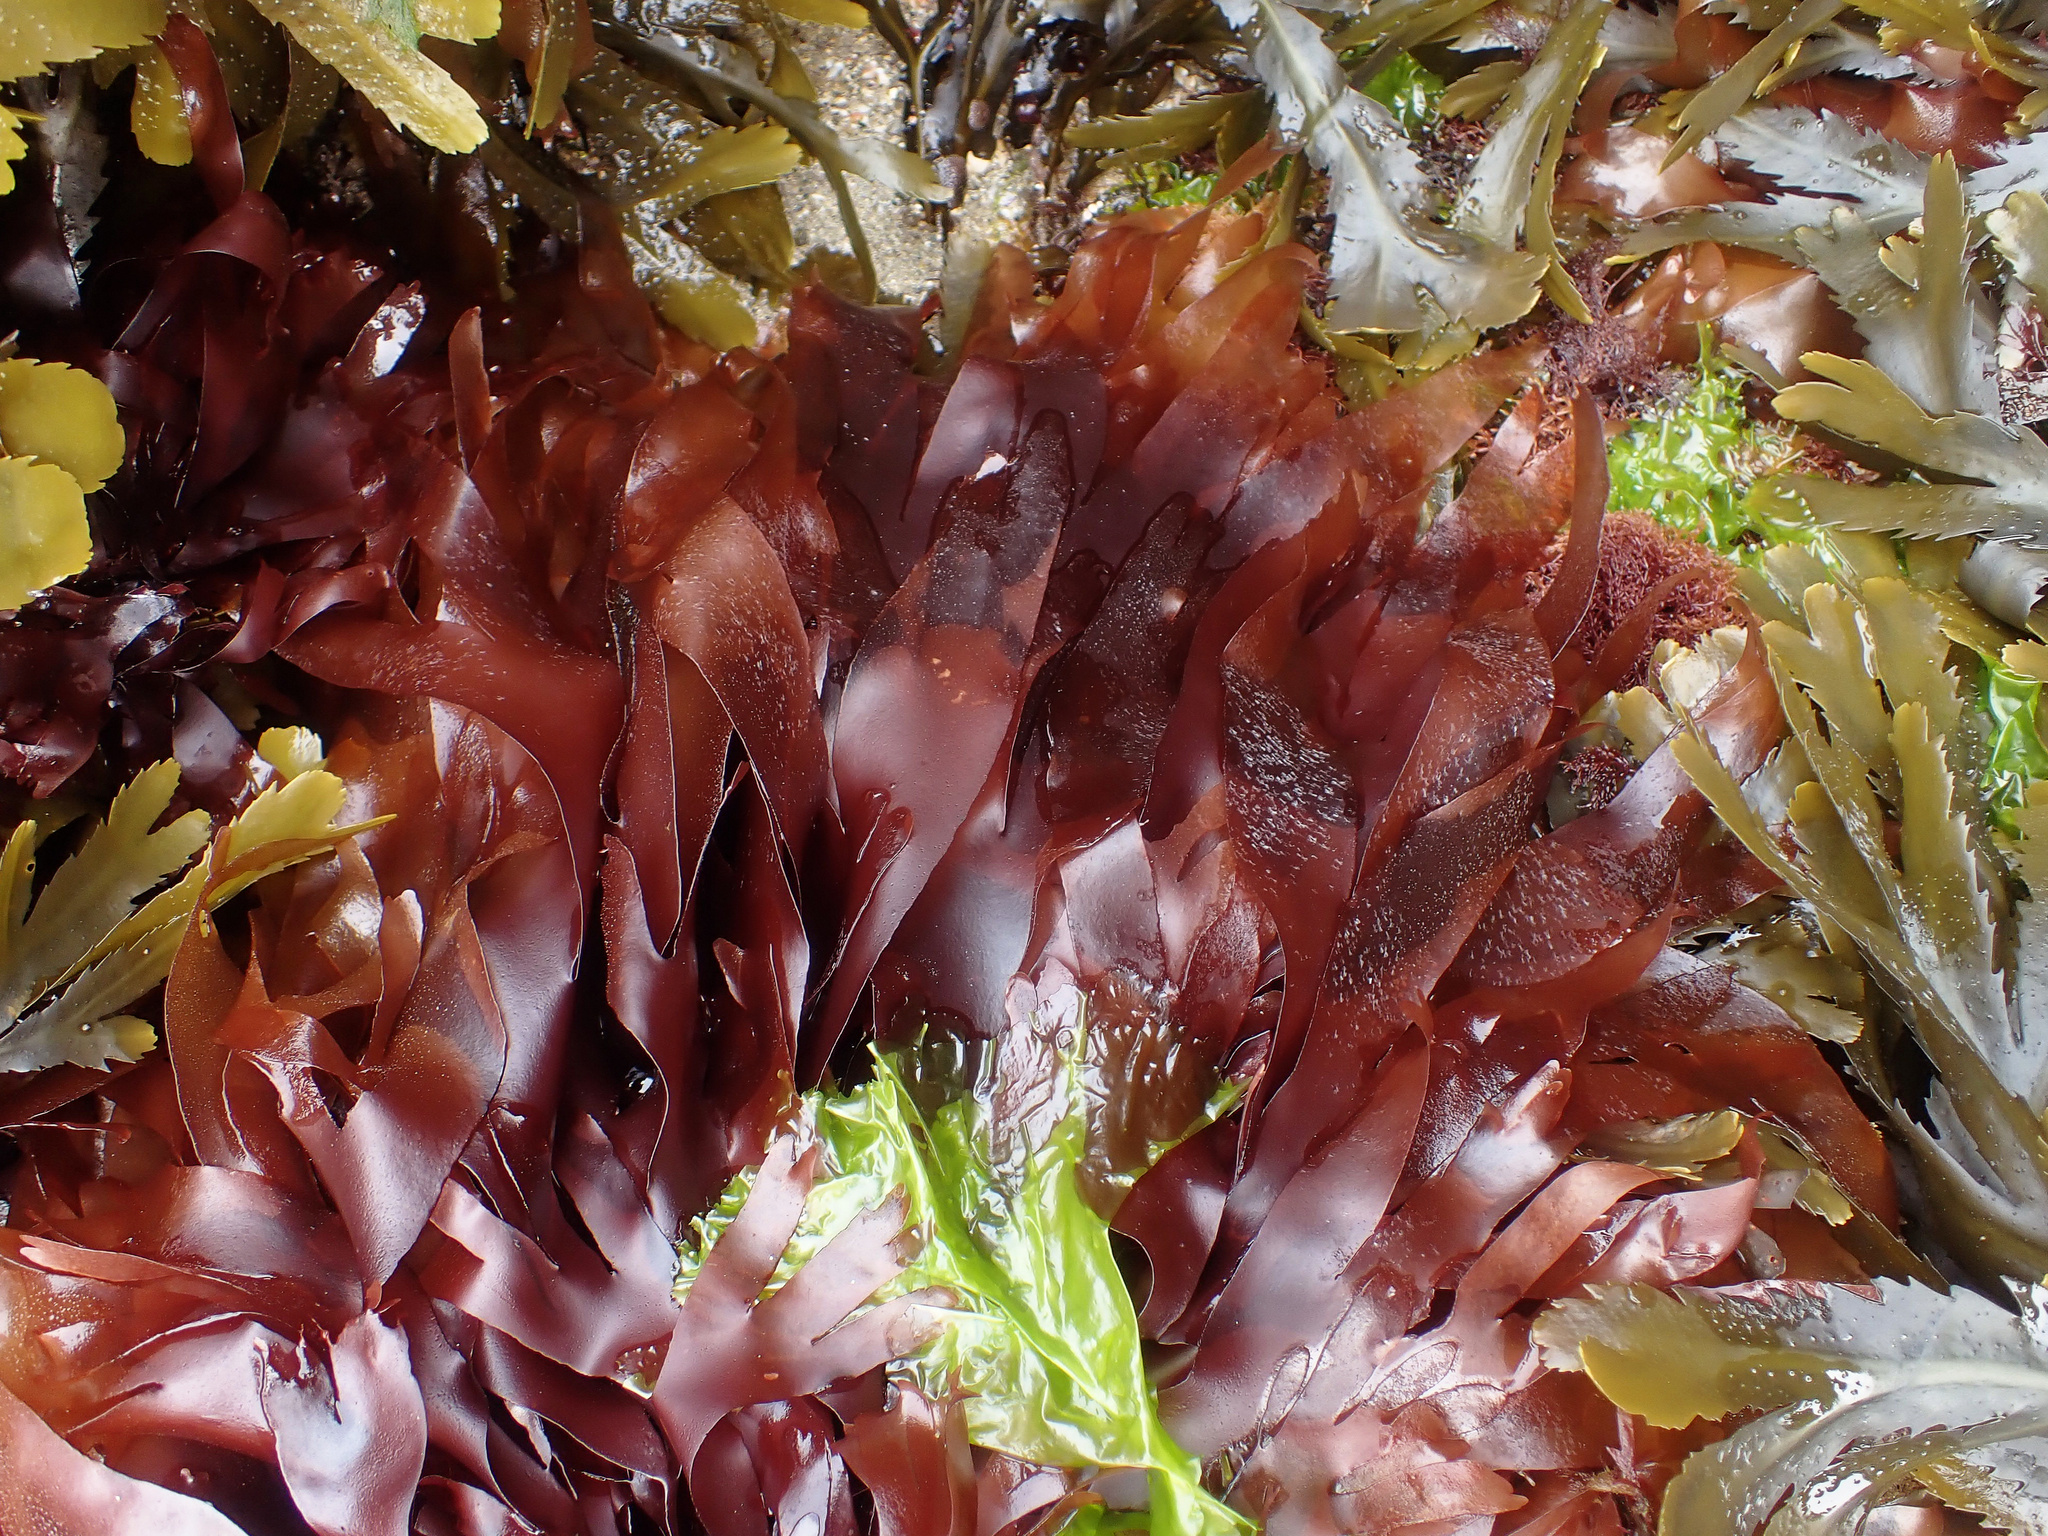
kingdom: Plantae
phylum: Rhodophyta
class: Florideophyceae
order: Palmariales
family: Palmariaceae
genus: Palmaria
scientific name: Palmaria palmata
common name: Dulse
